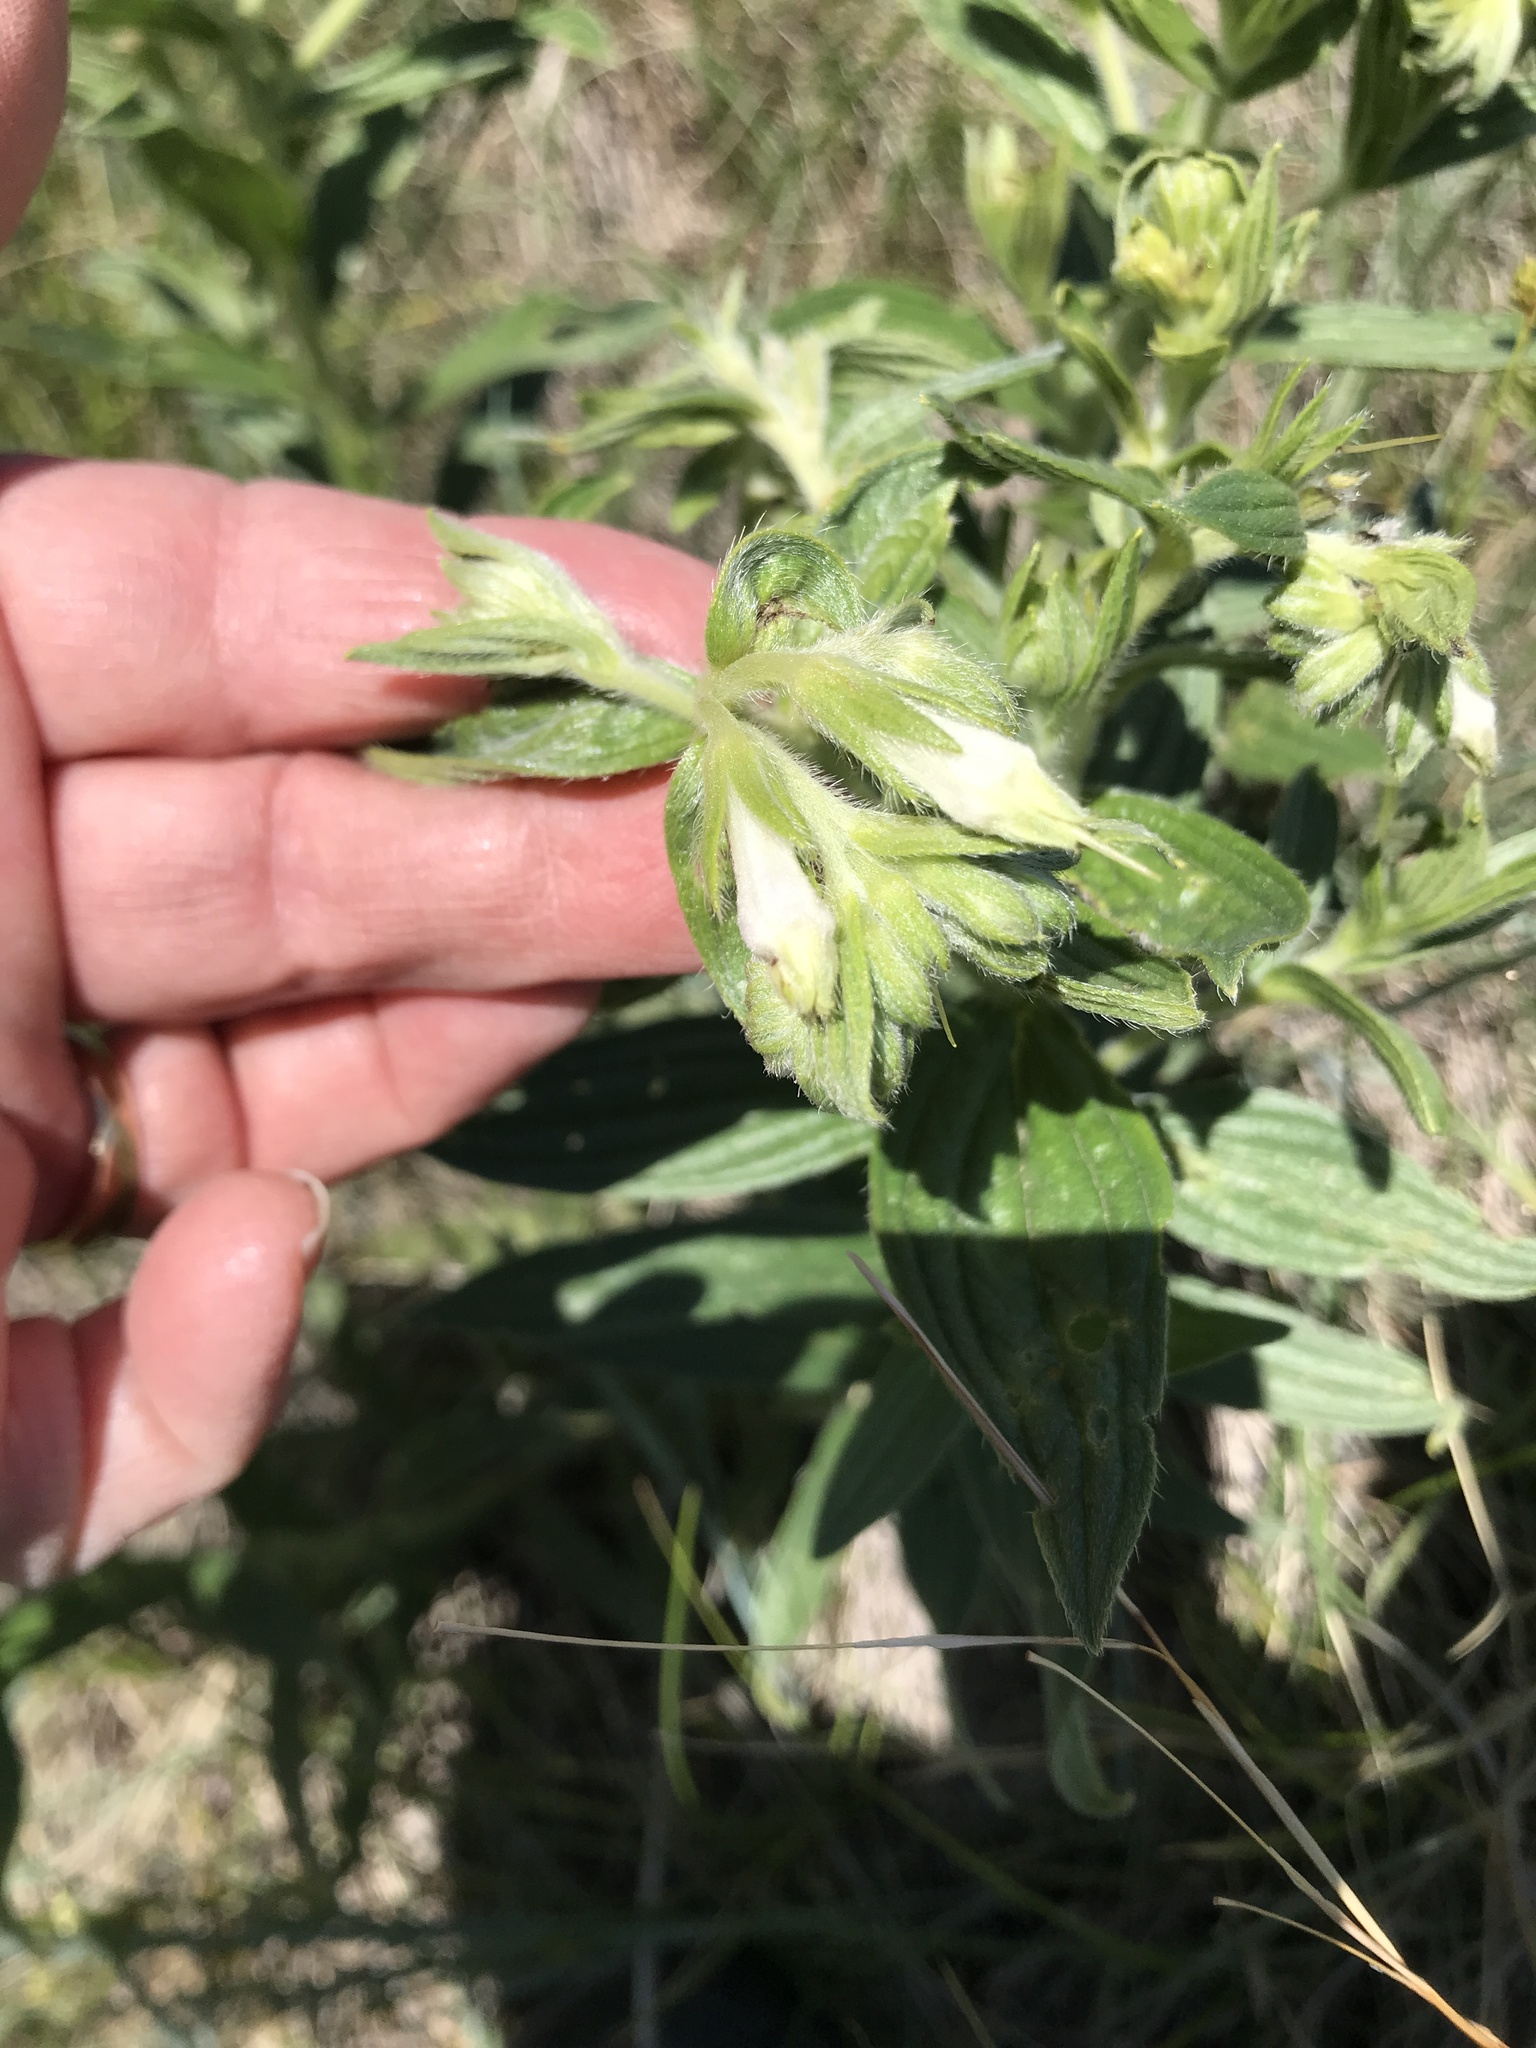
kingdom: Plantae
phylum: Tracheophyta
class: Magnoliopsida
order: Boraginales
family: Boraginaceae
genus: Lithospermum
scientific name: Lithospermum occidentale
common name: Western false gromwell
